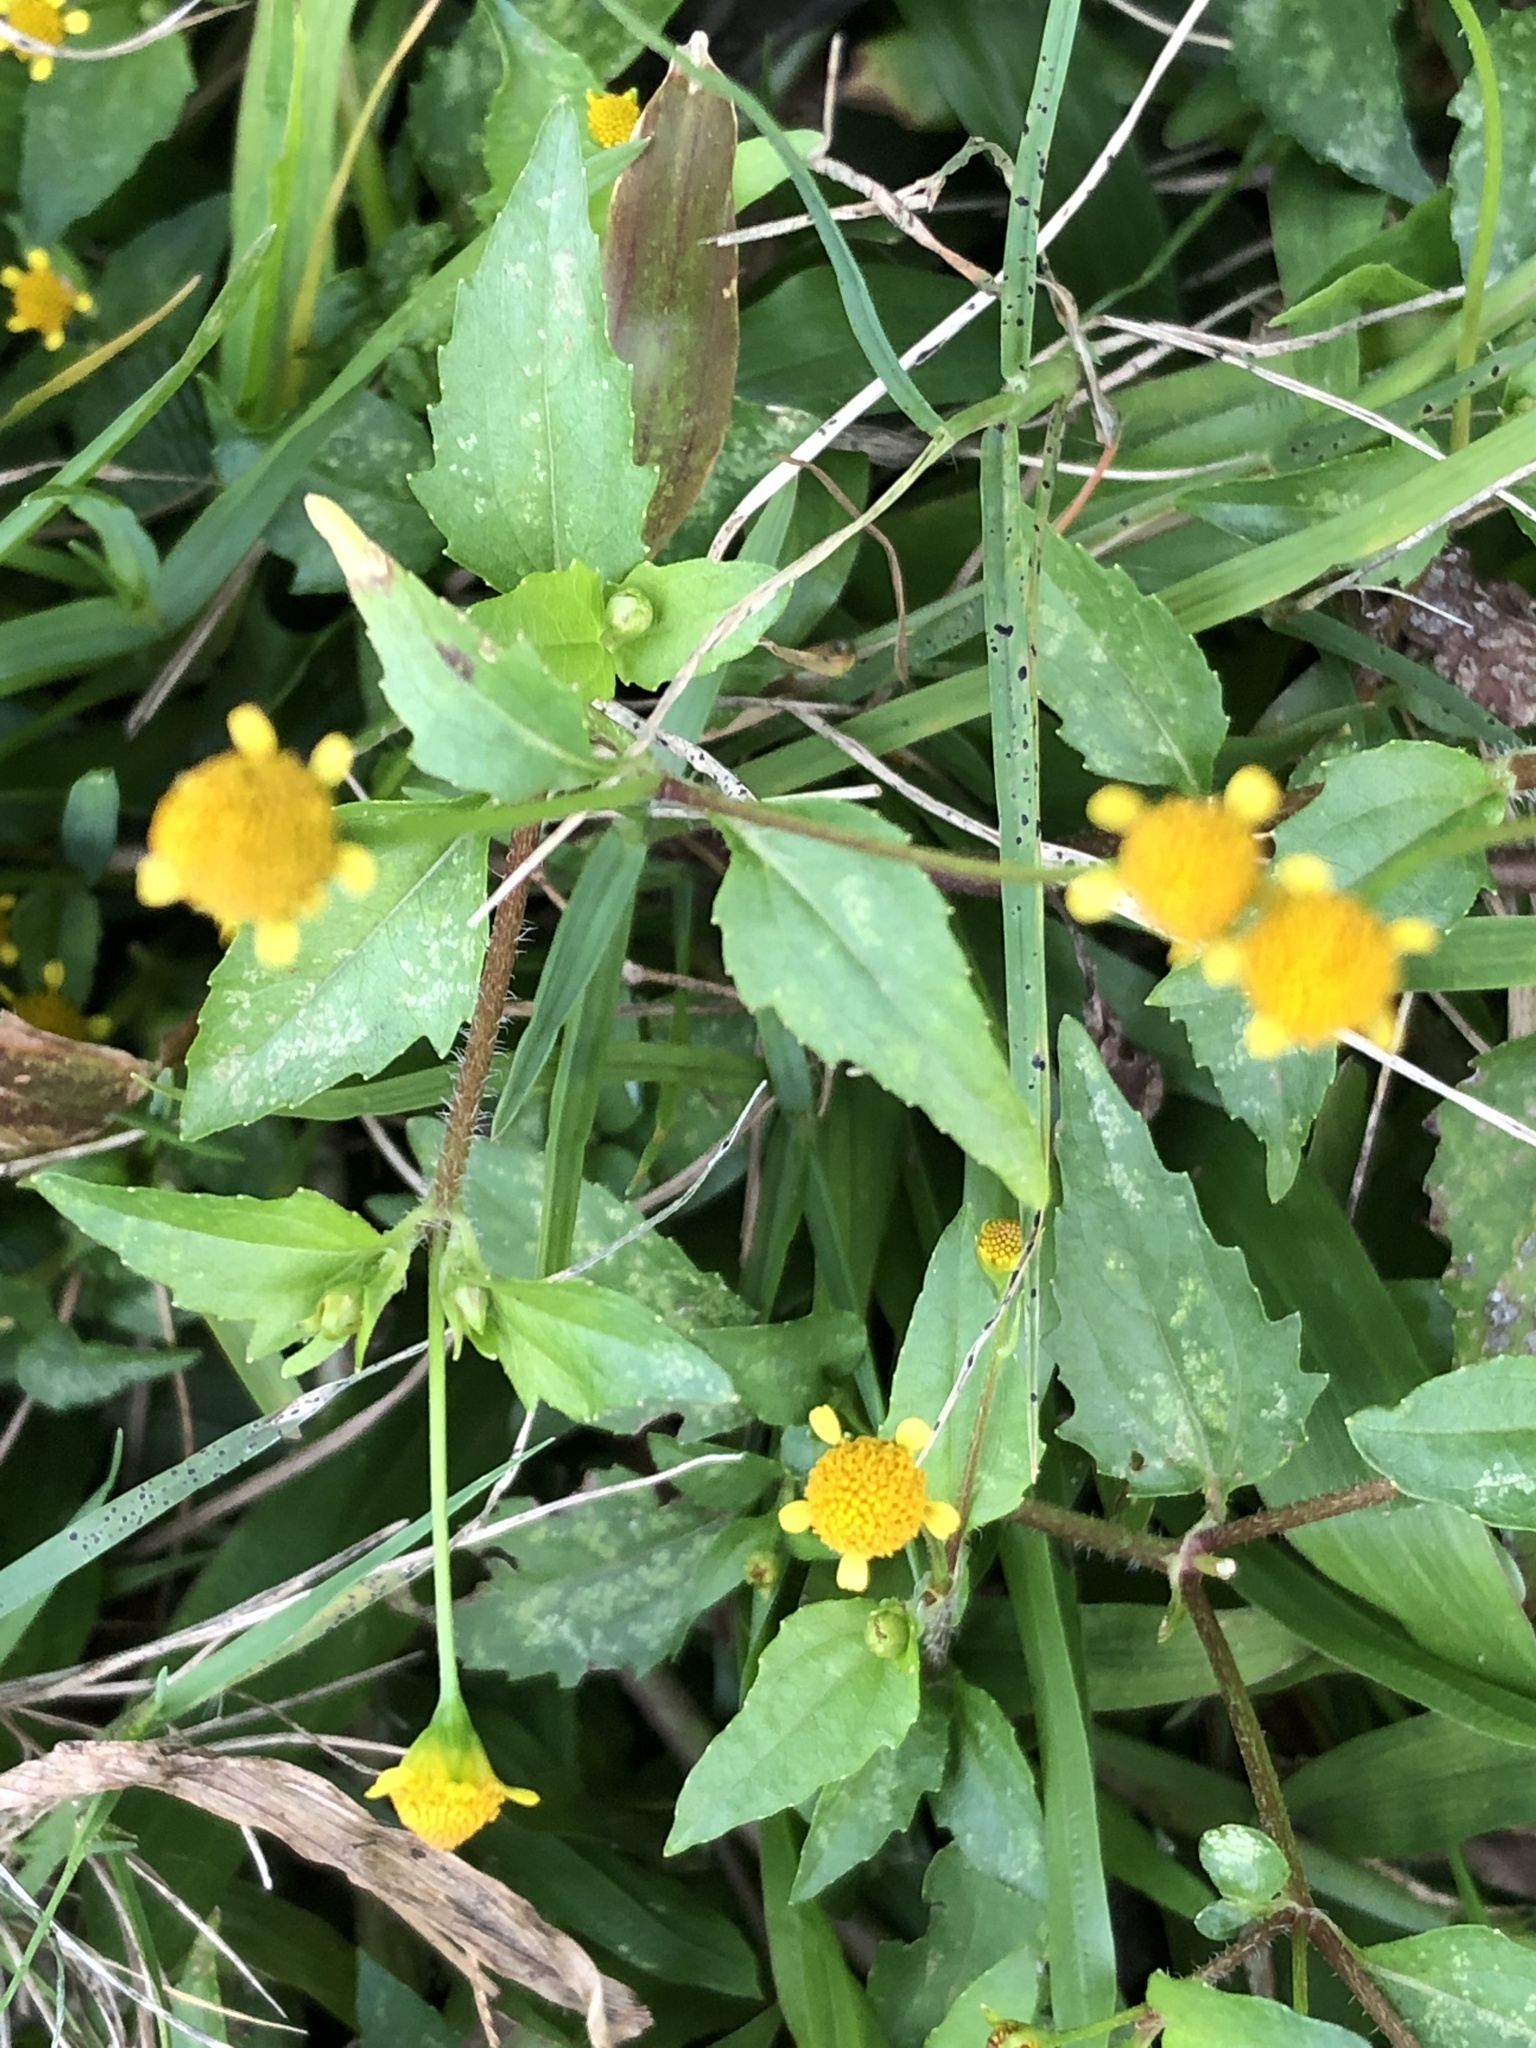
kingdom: Plantae
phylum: Tracheophyta
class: Magnoliopsida
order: Asterales
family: Asteraceae
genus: Acmella
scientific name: Acmella uliginosa
